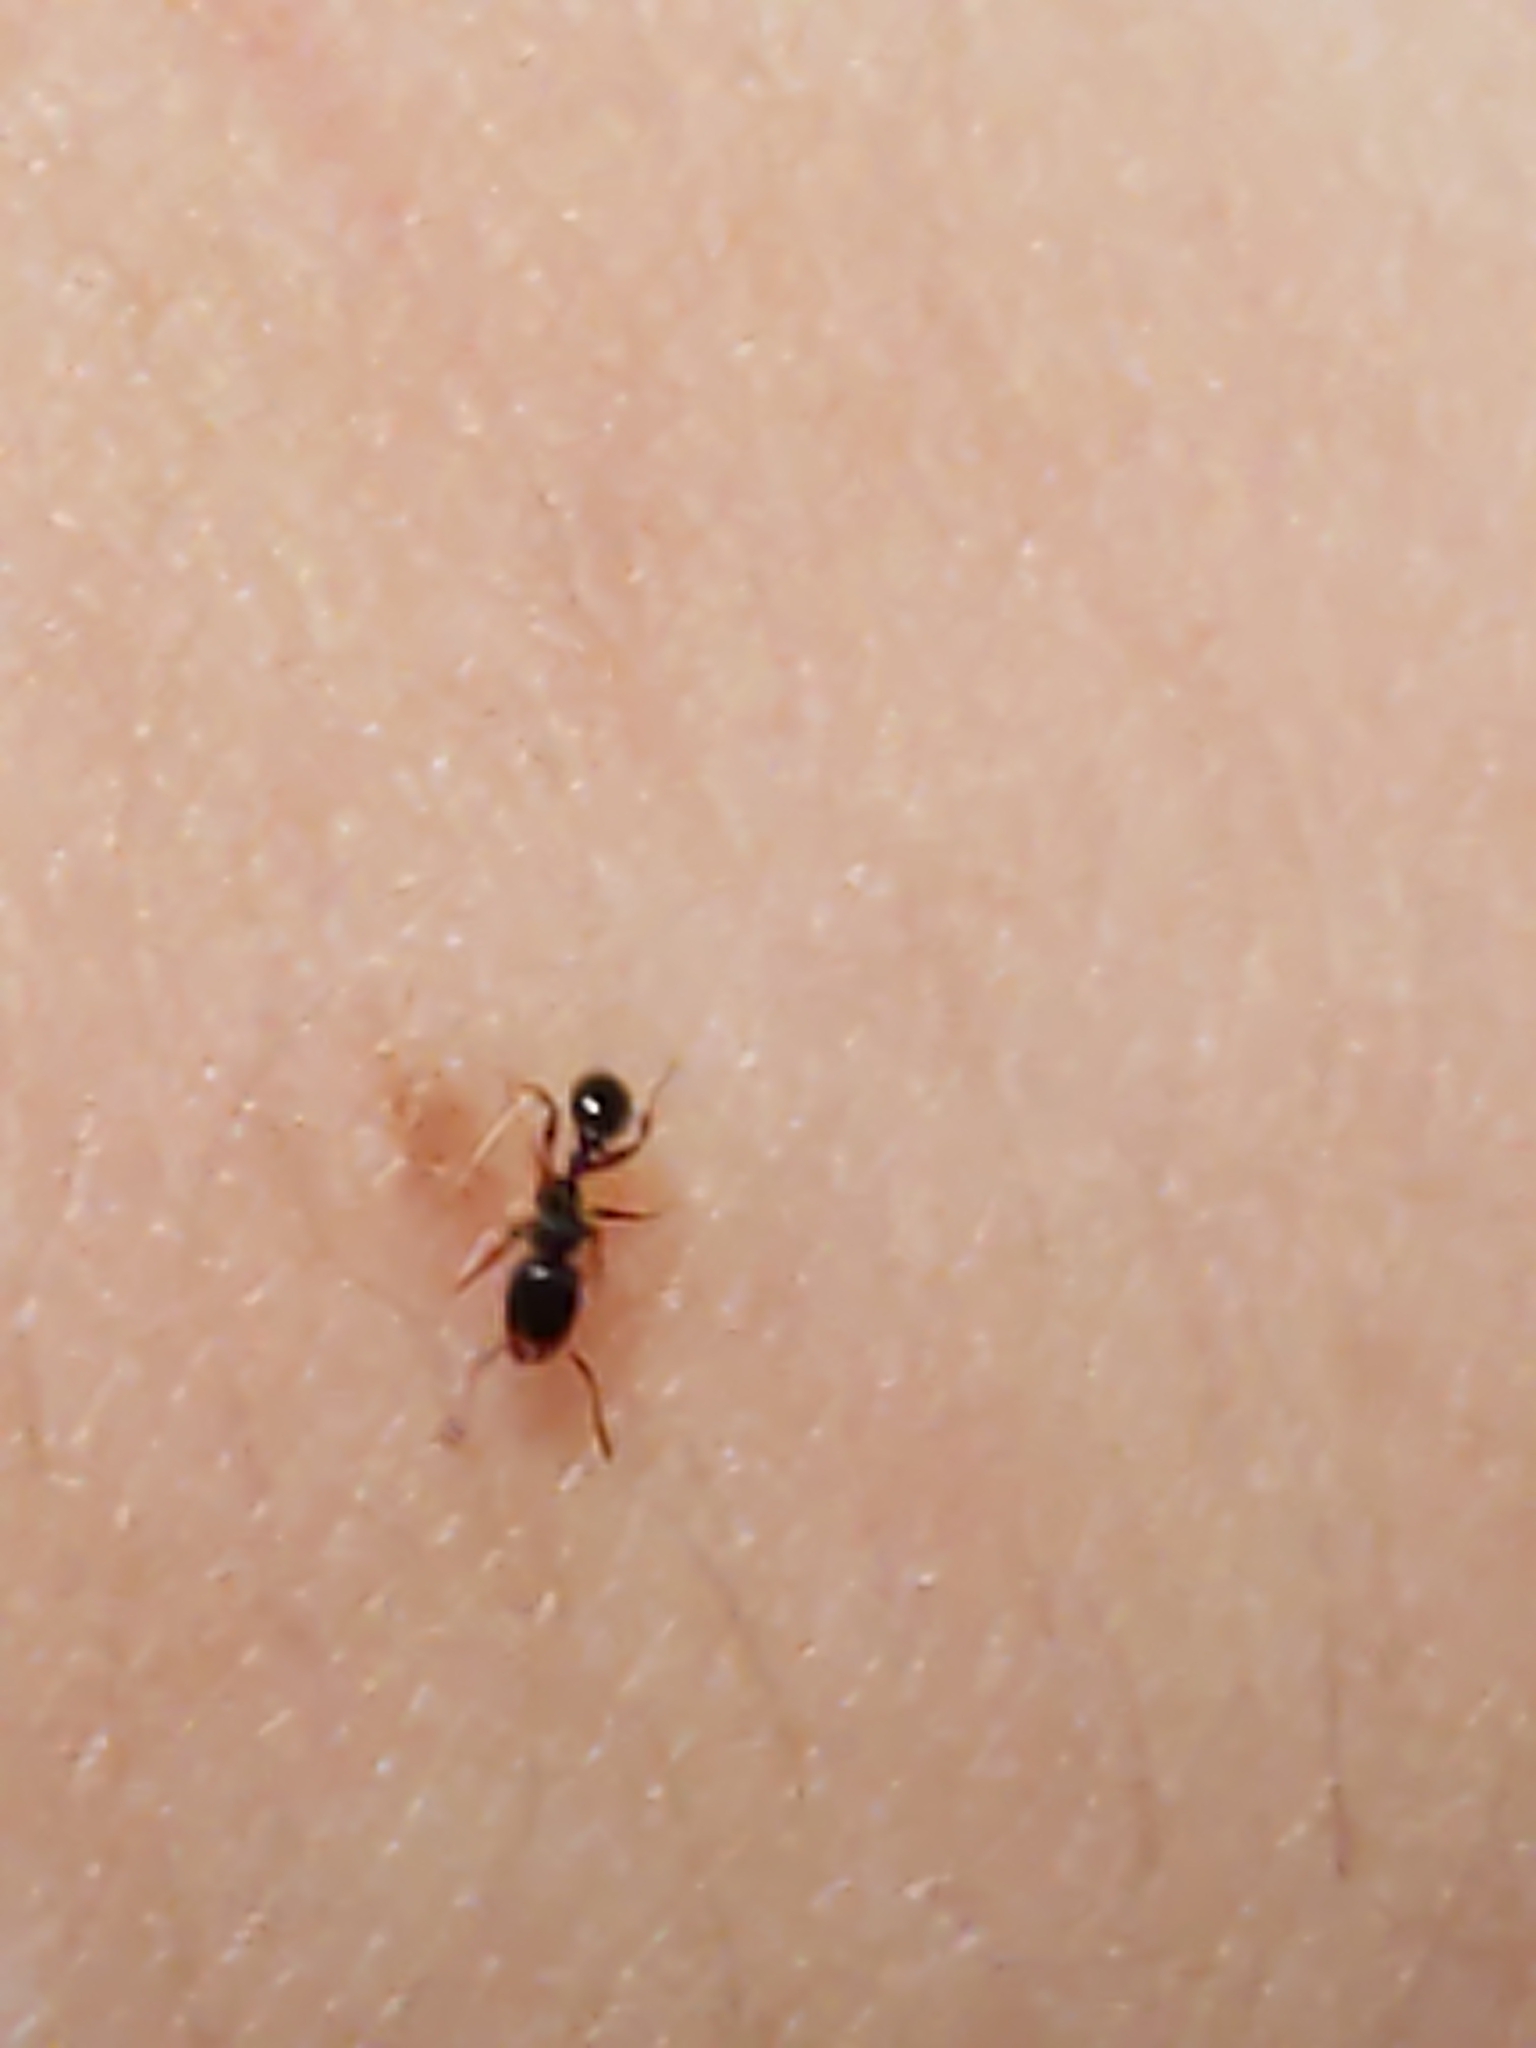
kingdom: Animalia
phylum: Arthropoda
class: Insecta
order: Hymenoptera
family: Formicidae
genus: Tetramorium
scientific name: Tetramorium immigrans
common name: Pavement ant
